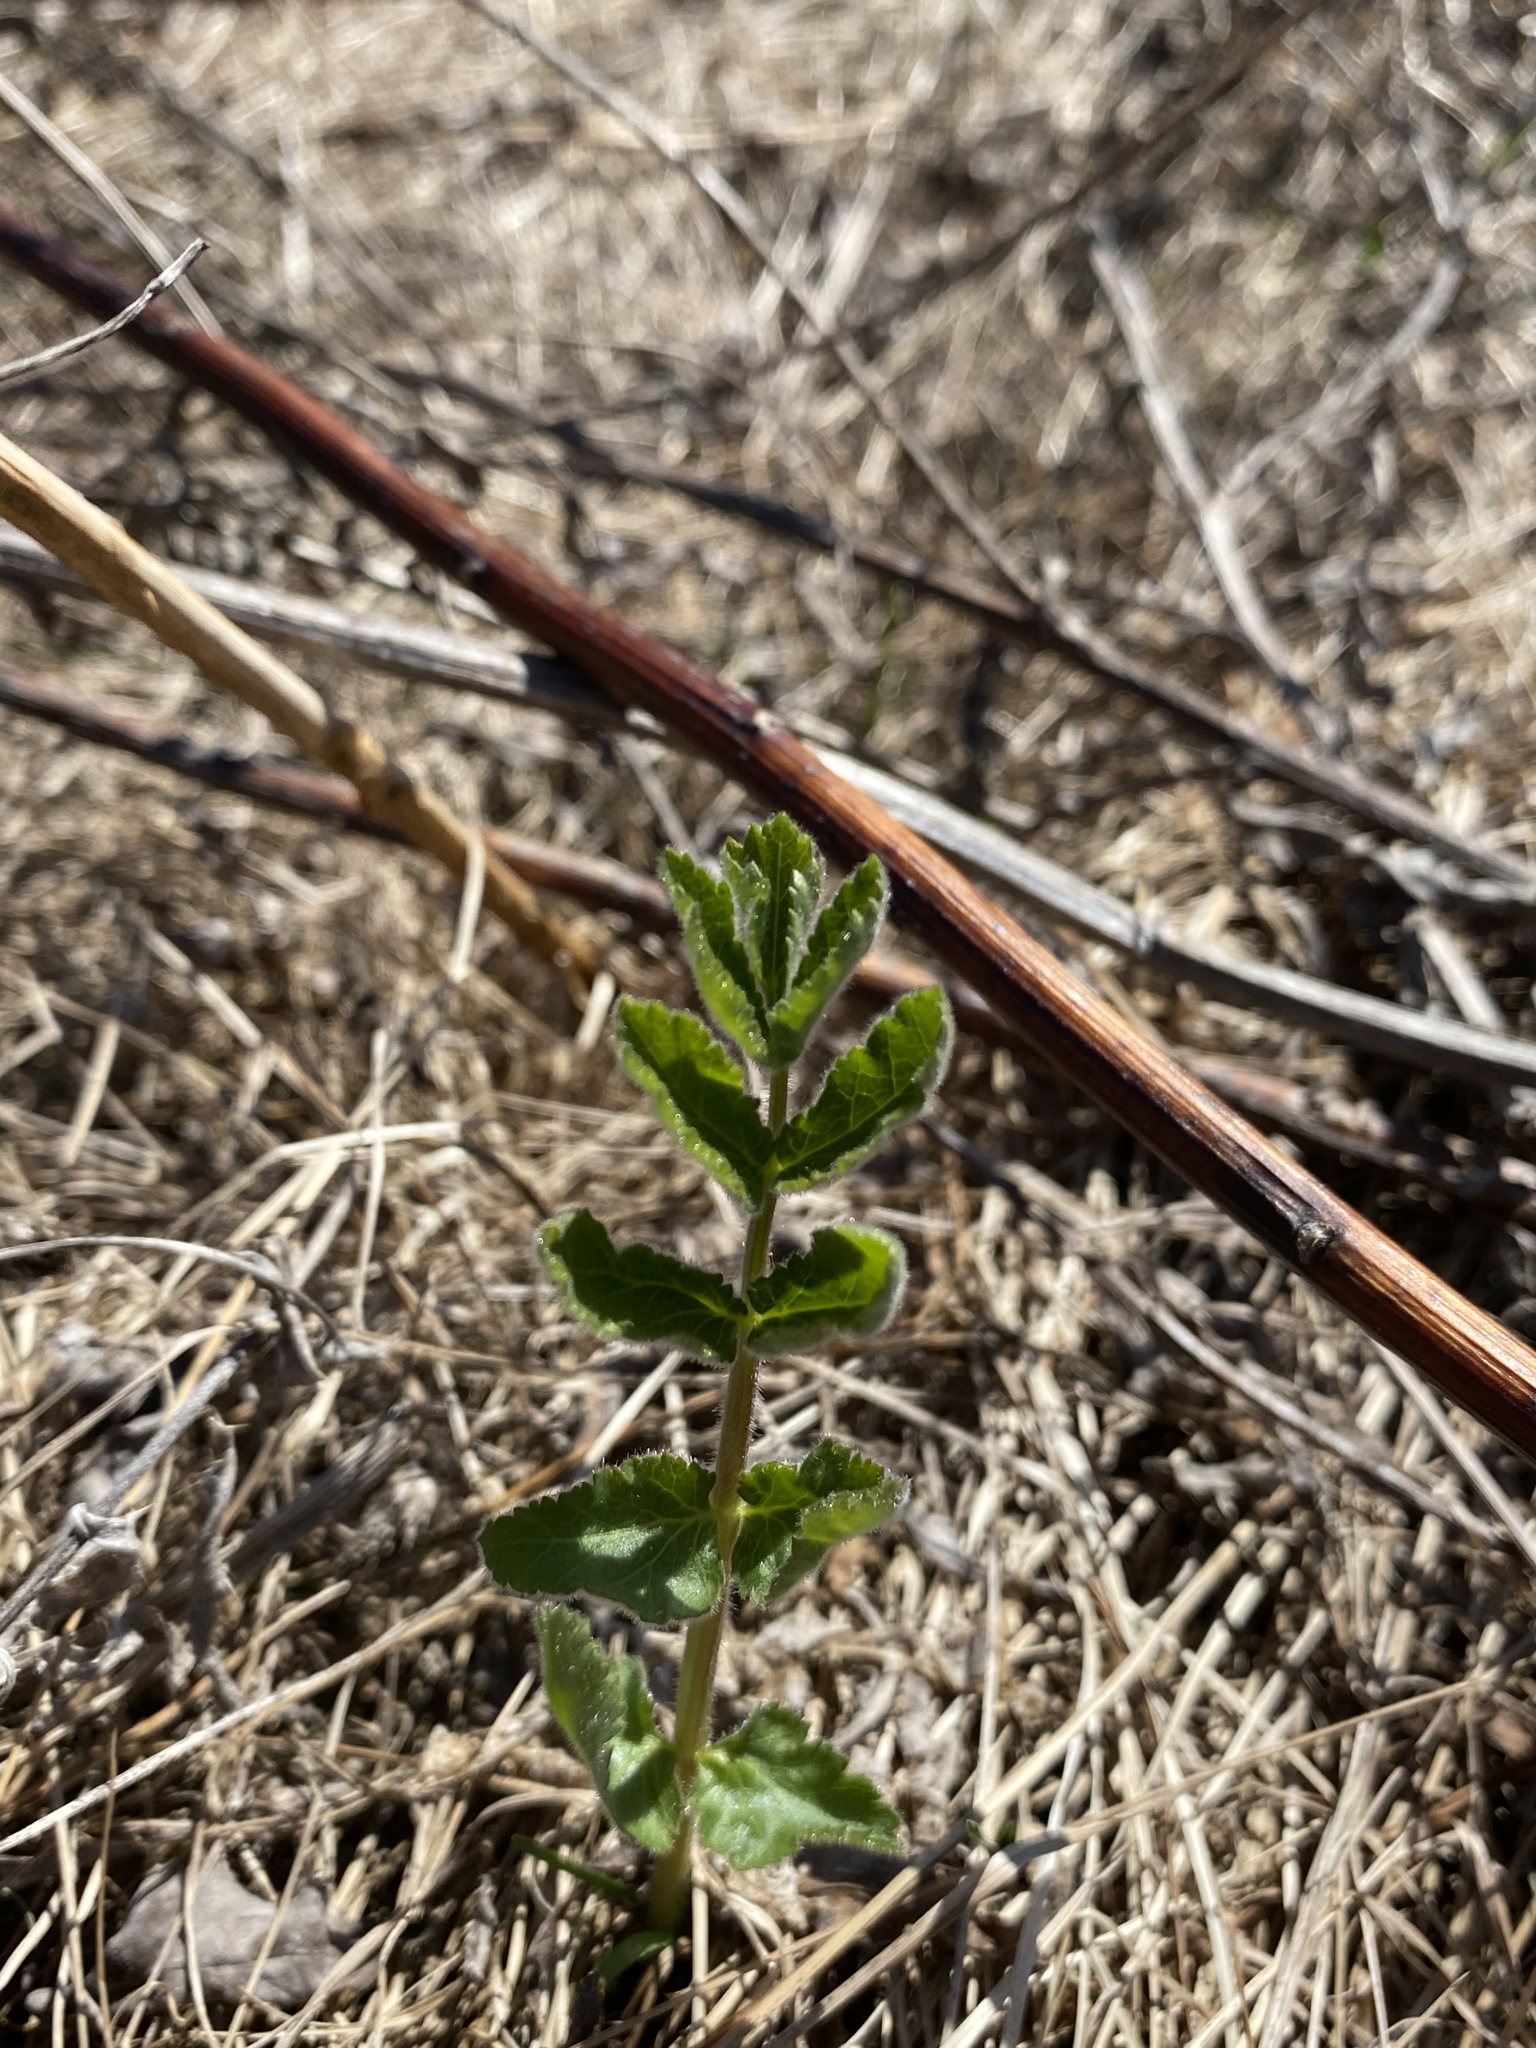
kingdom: Plantae
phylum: Tracheophyta
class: Magnoliopsida
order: Apiales
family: Apiaceae
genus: Pastinaca
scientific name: Pastinaca sativa
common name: Wild parsnip
